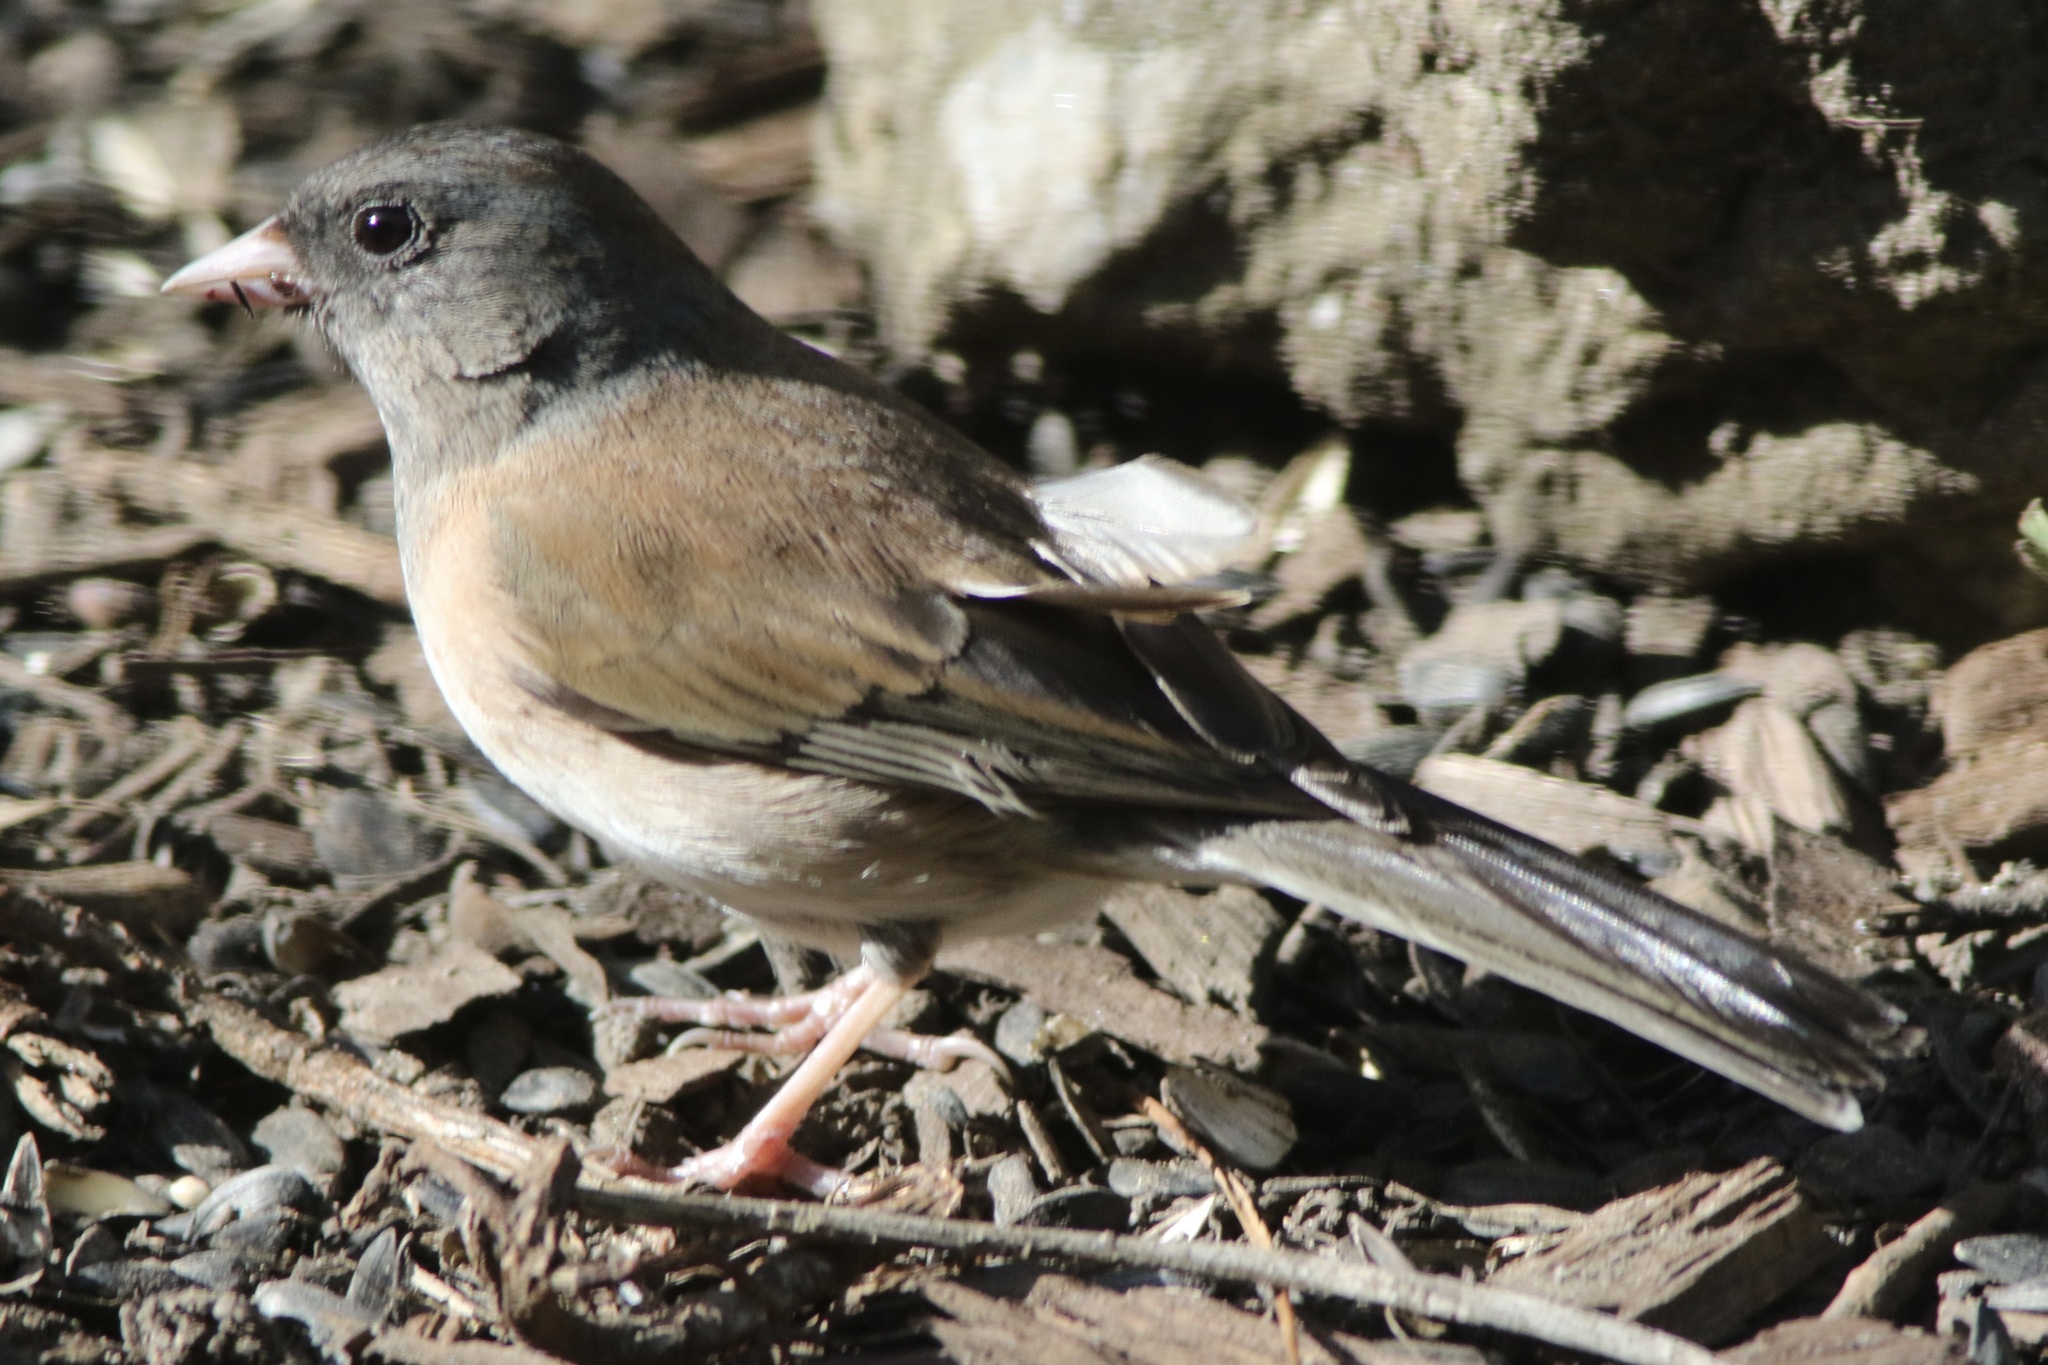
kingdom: Animalia
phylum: Chordata
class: Aves
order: Passeriformes
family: Passerellidae
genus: Junco
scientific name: Junco hyemalis
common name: Dark-eyed junco
